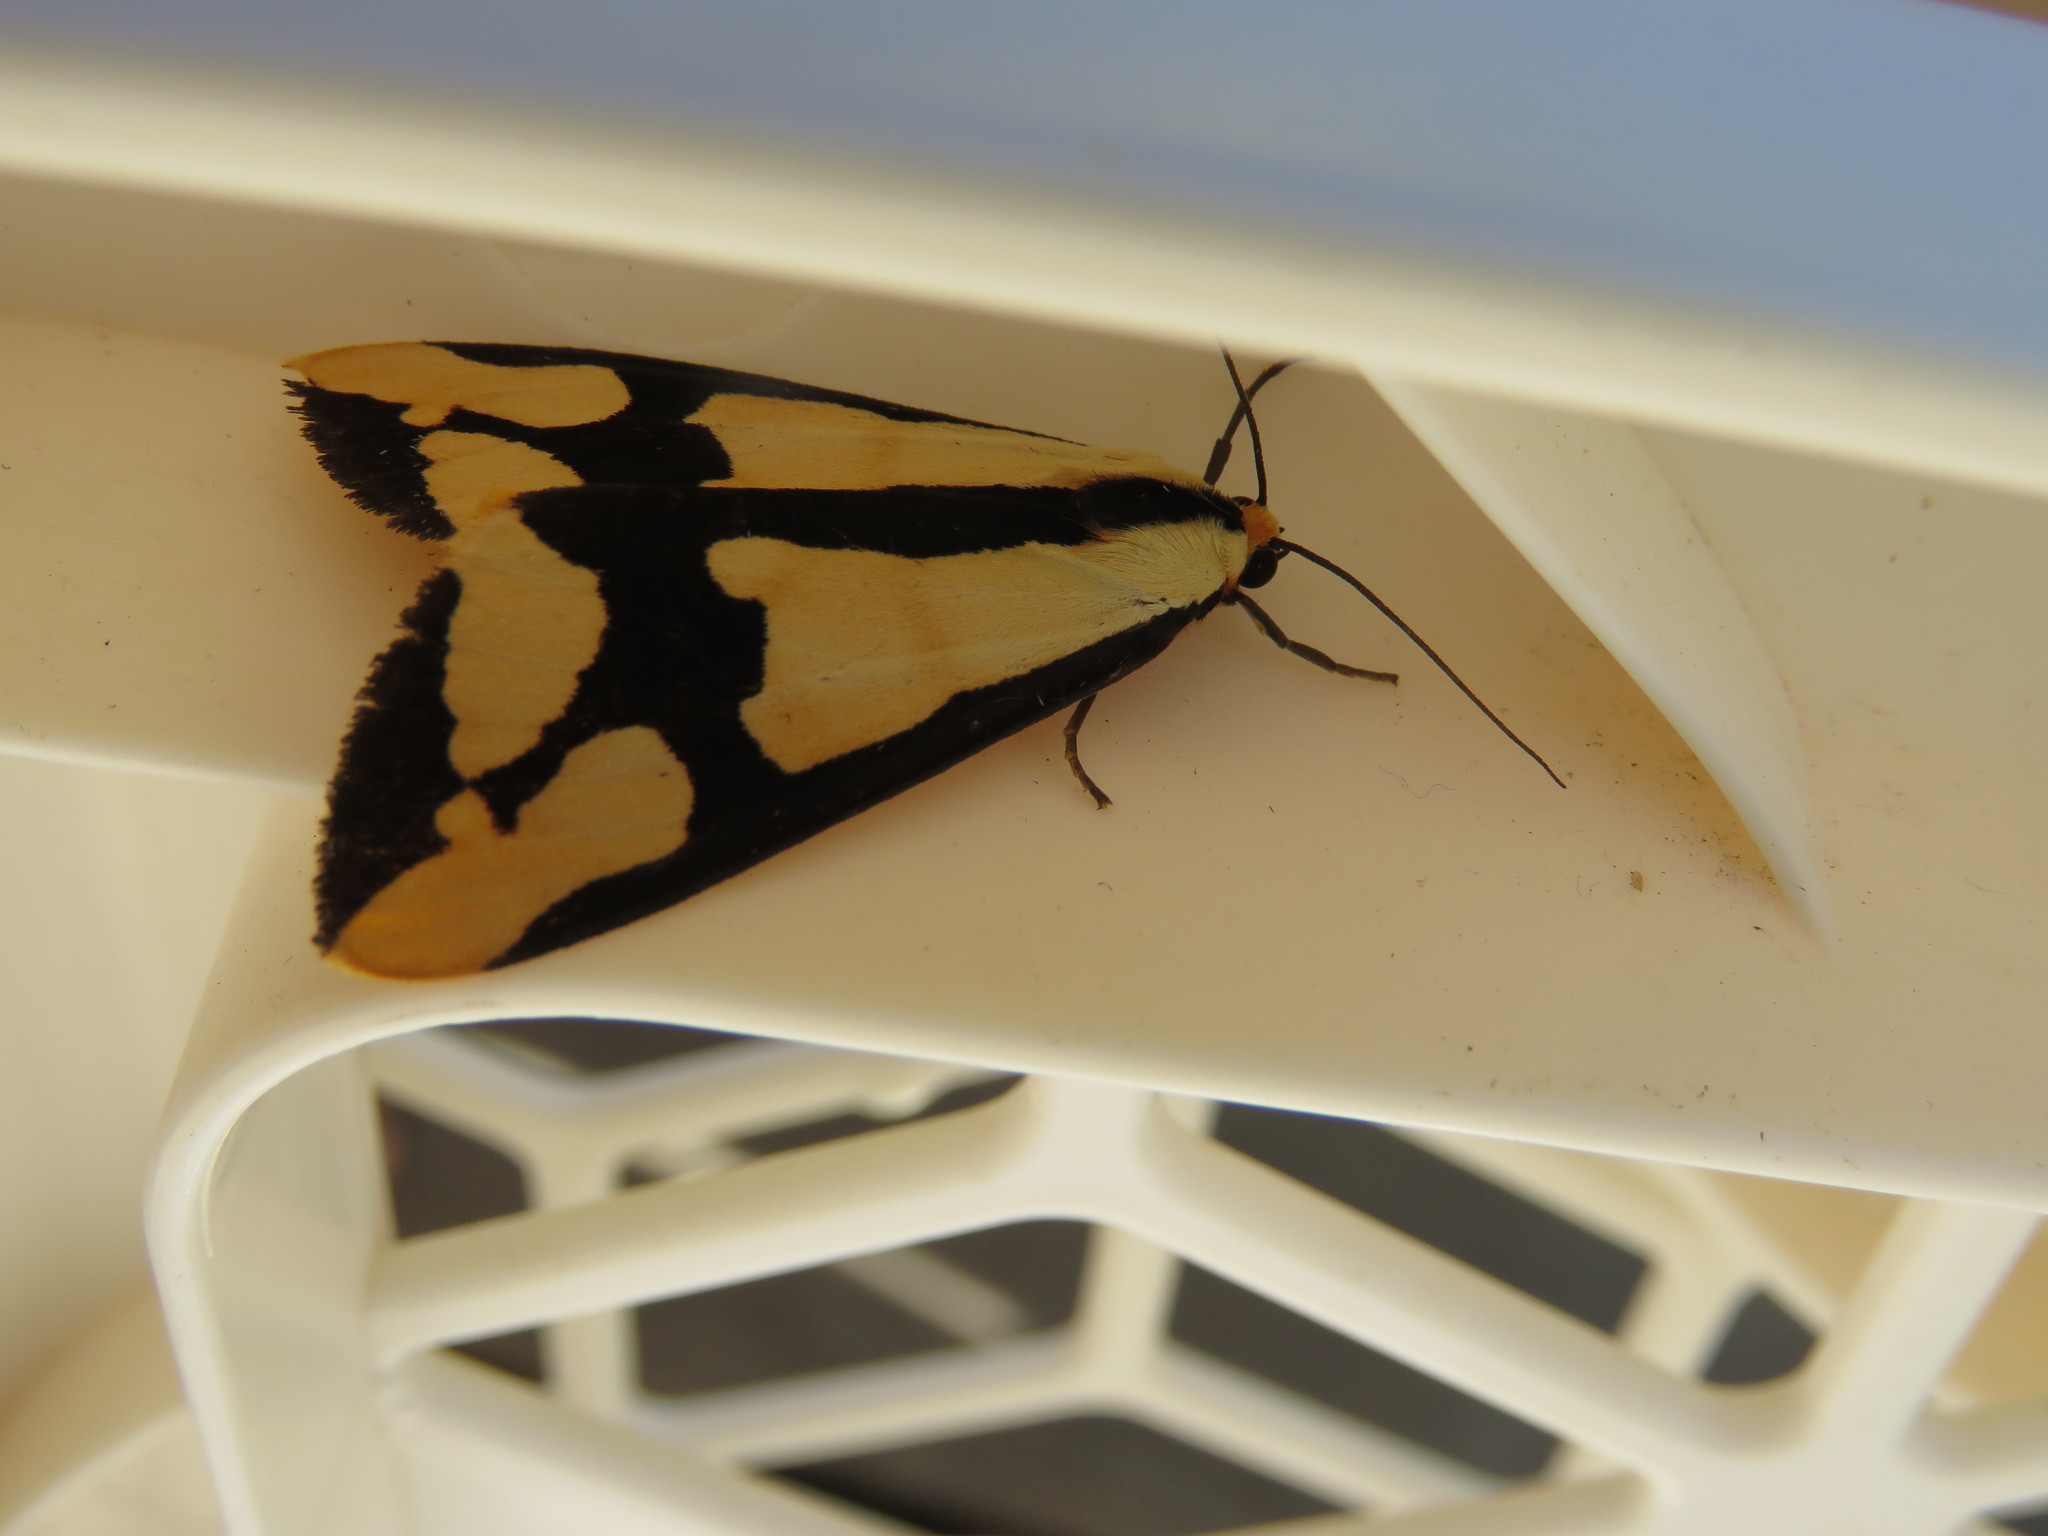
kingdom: Animalia
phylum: Arthropoda
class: Insecta
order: Lepidoptera
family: Erebidae
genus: Haploa
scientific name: Haploa clymene
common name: Clymene moth
